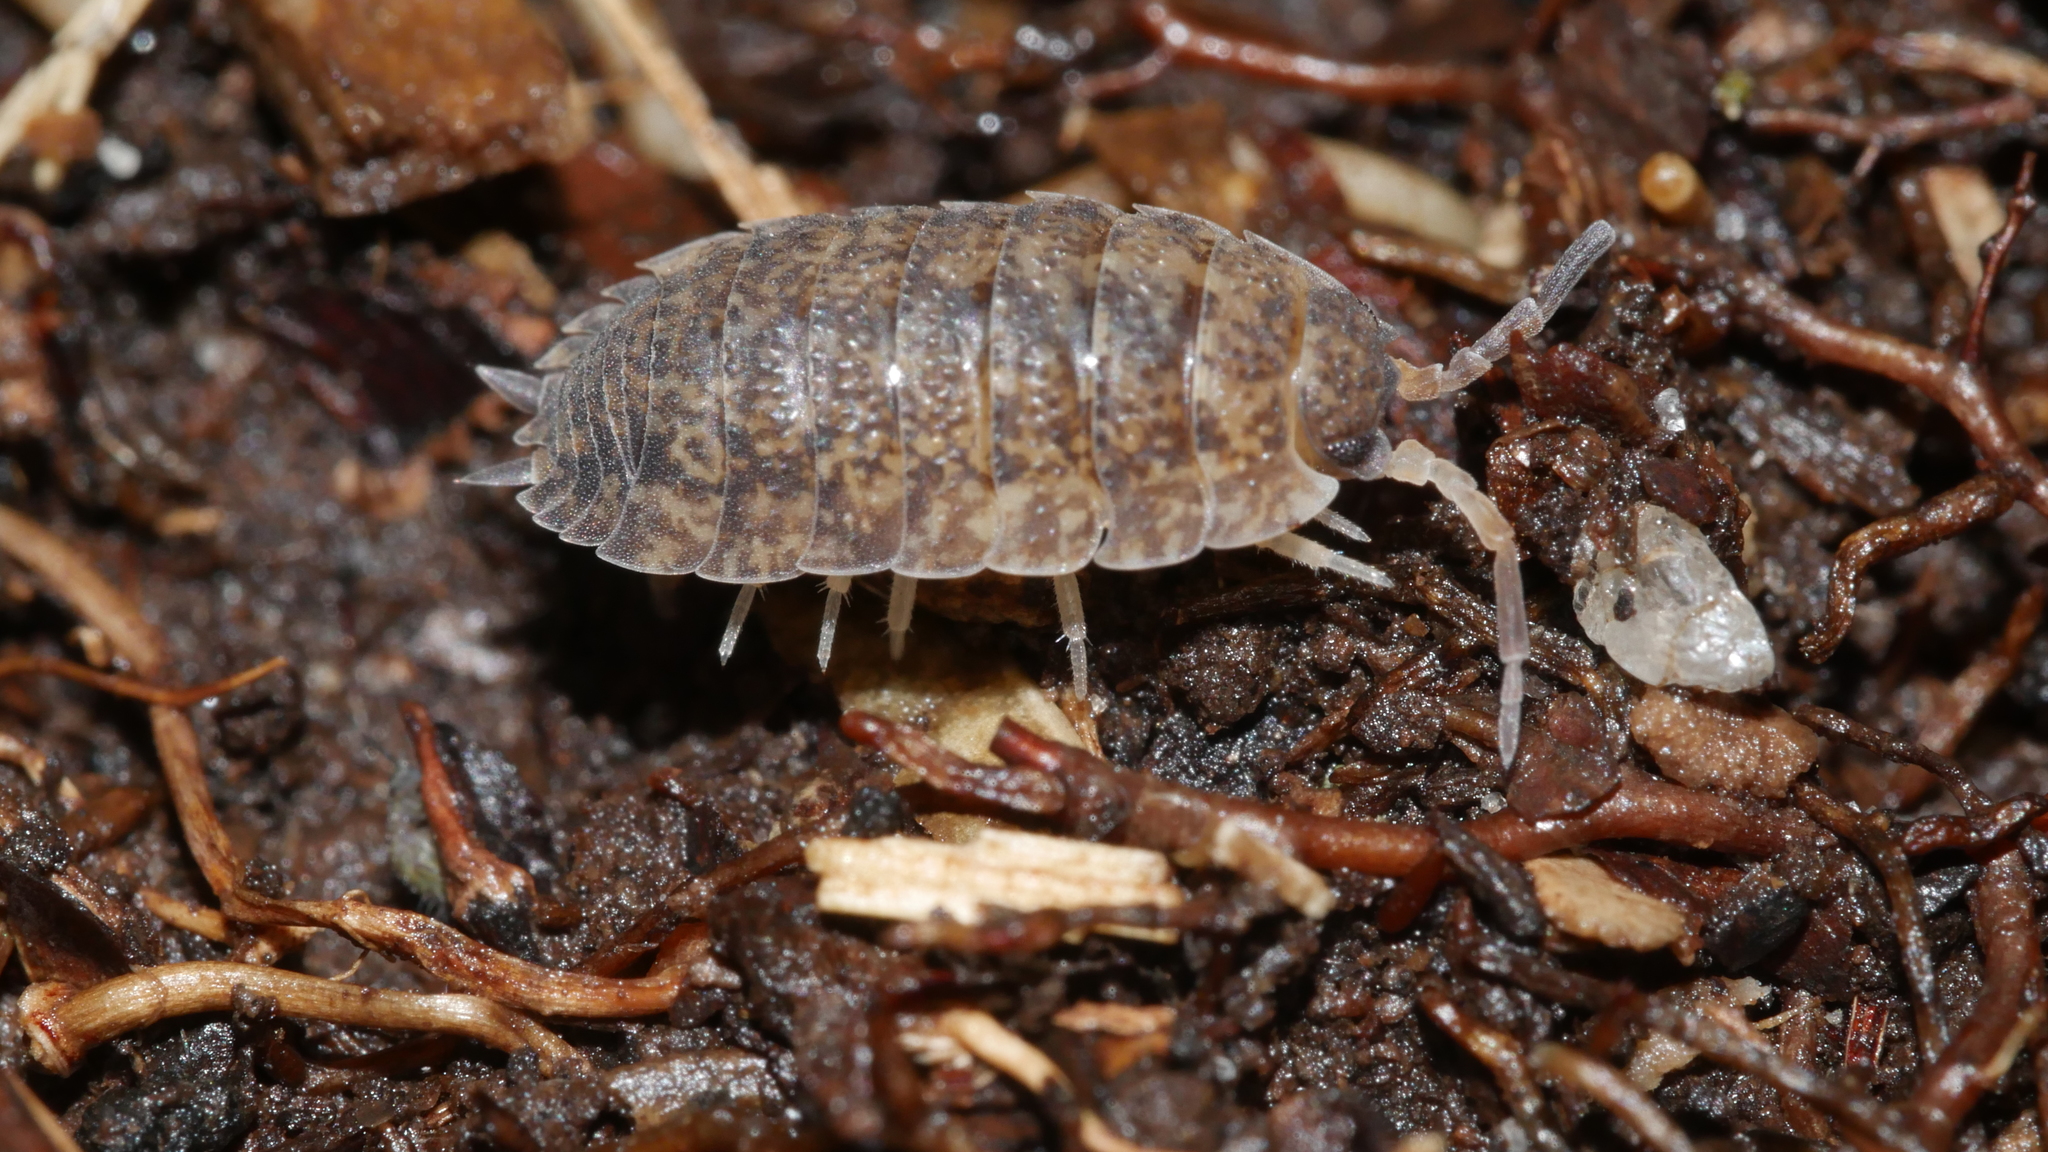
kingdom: Animalia
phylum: Arthropoda
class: Malacostraca
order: Isopoda
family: Porcellionidae
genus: Porcellio
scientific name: Porcellio scaber
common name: Common rough woodlouse
